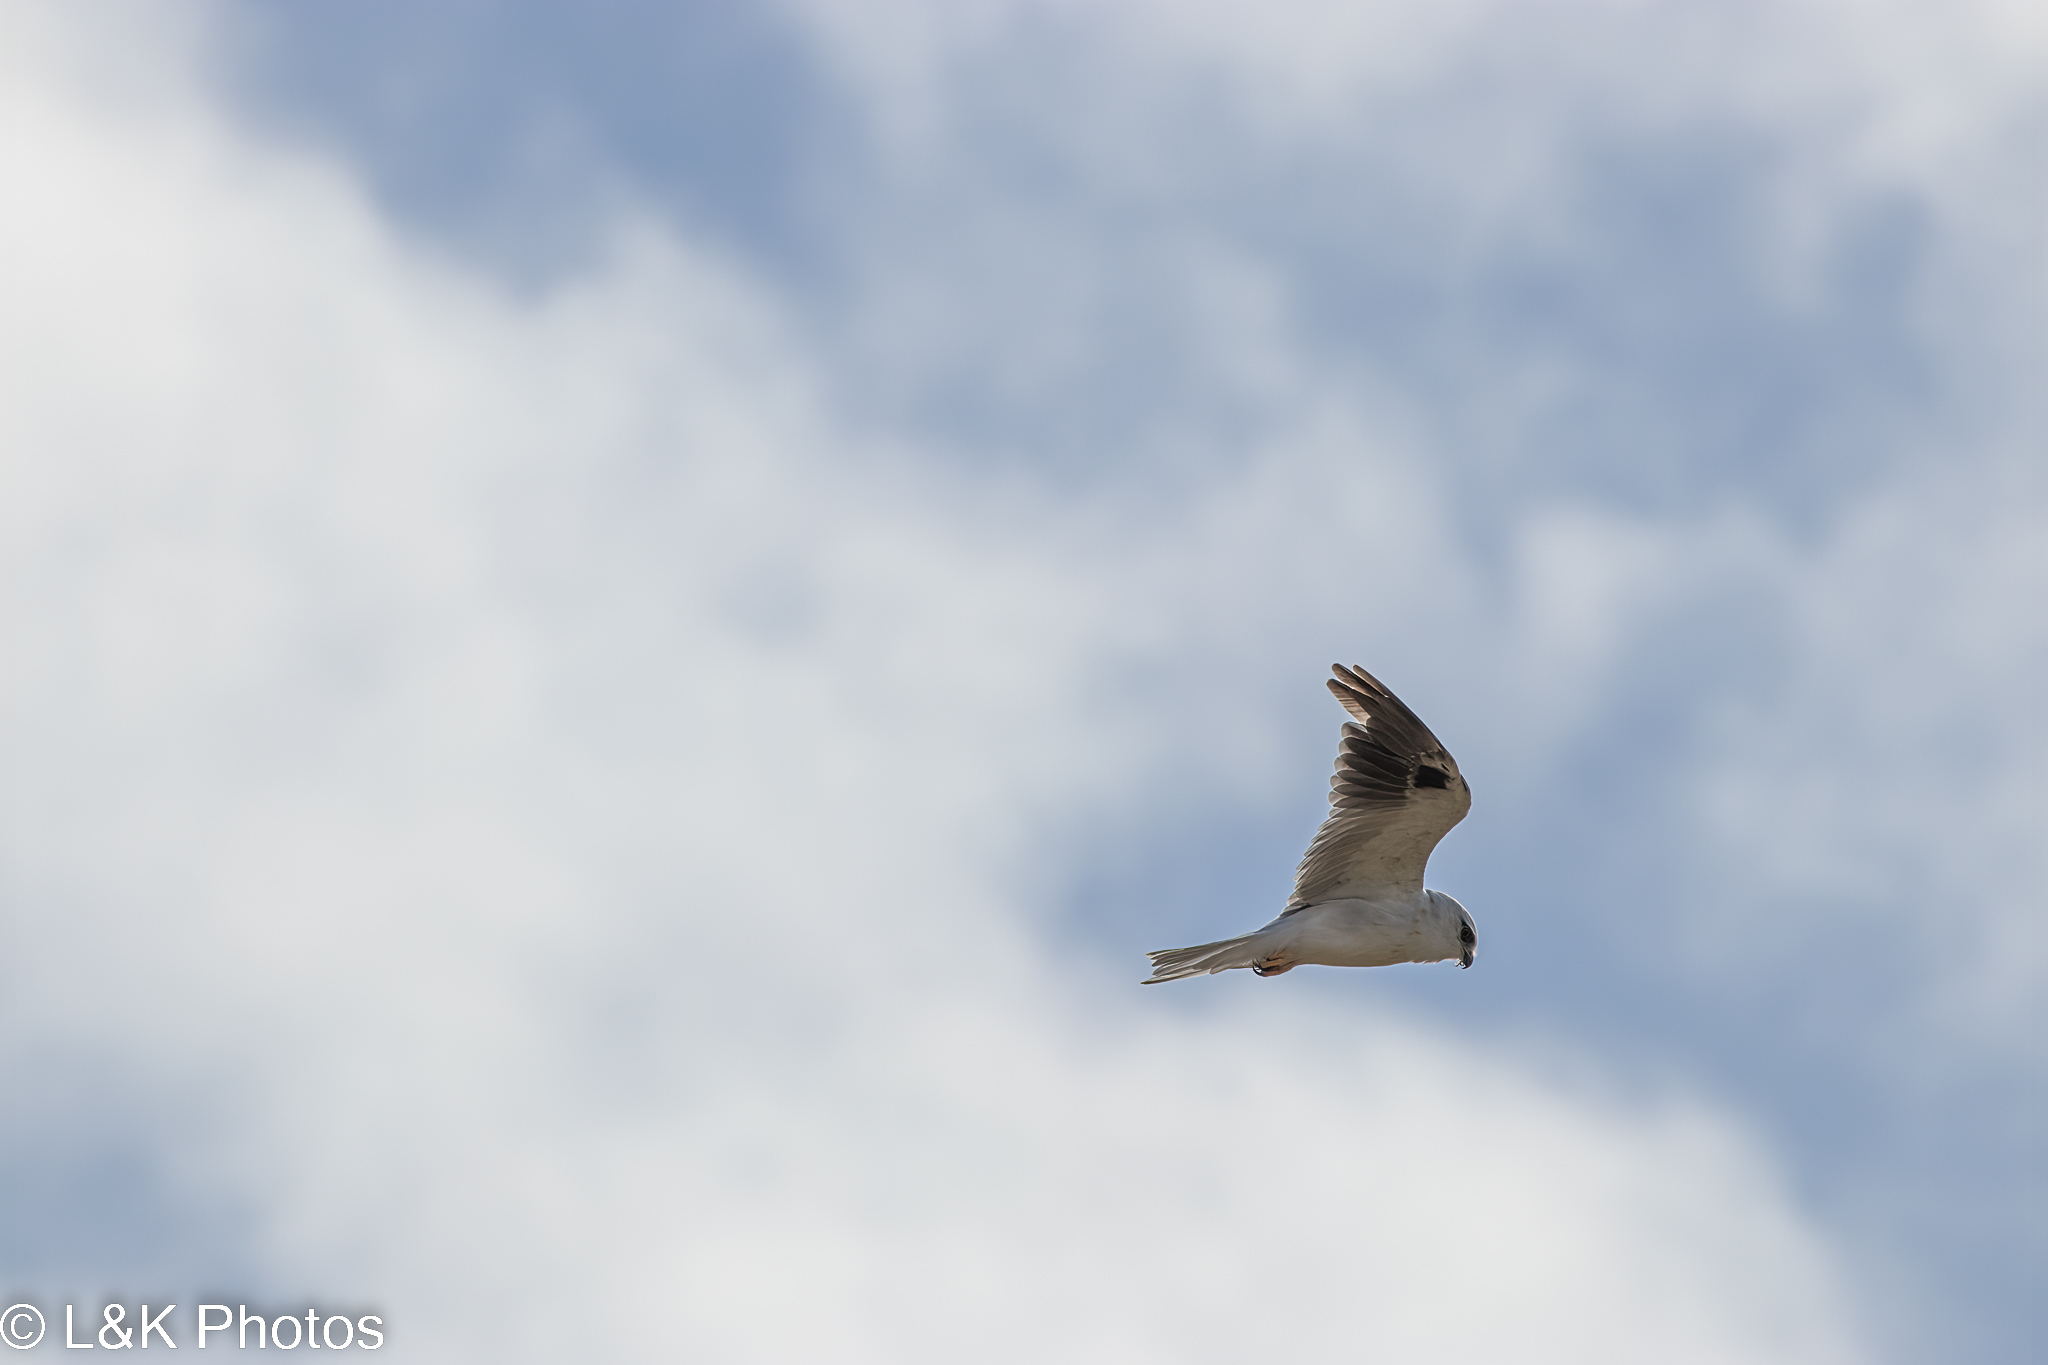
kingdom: Animalia
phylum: Chordata
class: Aves
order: Accipitriformes
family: Accipitridae
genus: Elanus
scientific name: Elanus axillaris
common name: Black-shouldered kite
